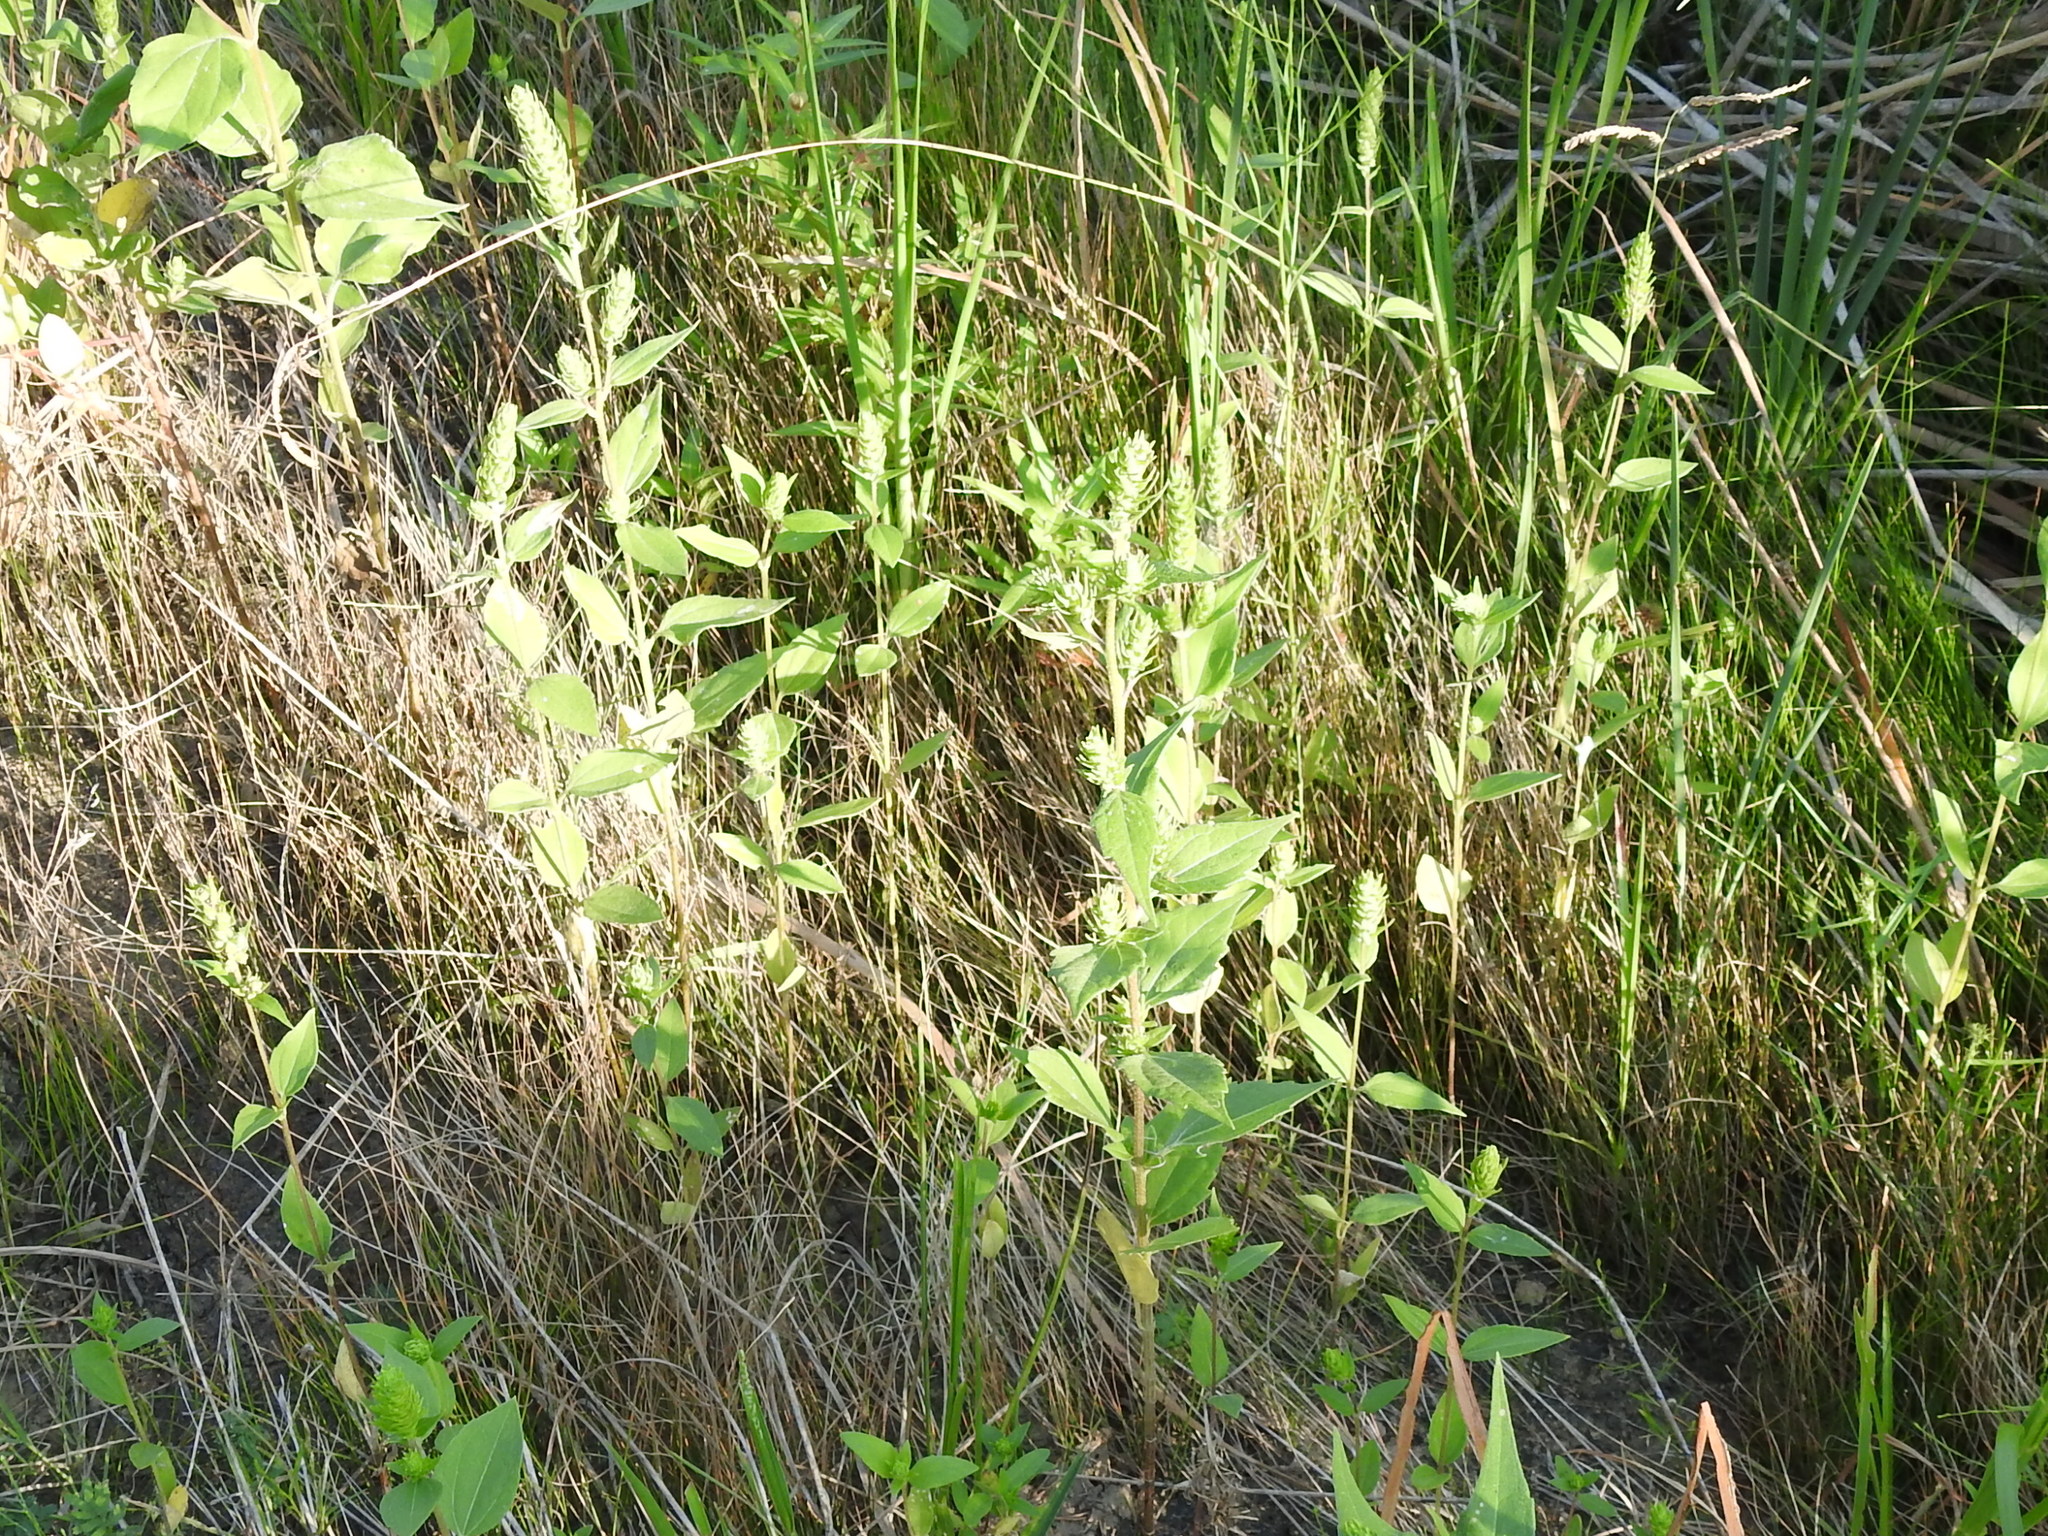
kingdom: Plantae
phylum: Tracheophyta
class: Magnoliopsida
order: Asterales
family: Asteraceae
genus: Iva
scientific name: Iva annua
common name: Marsh-elder
